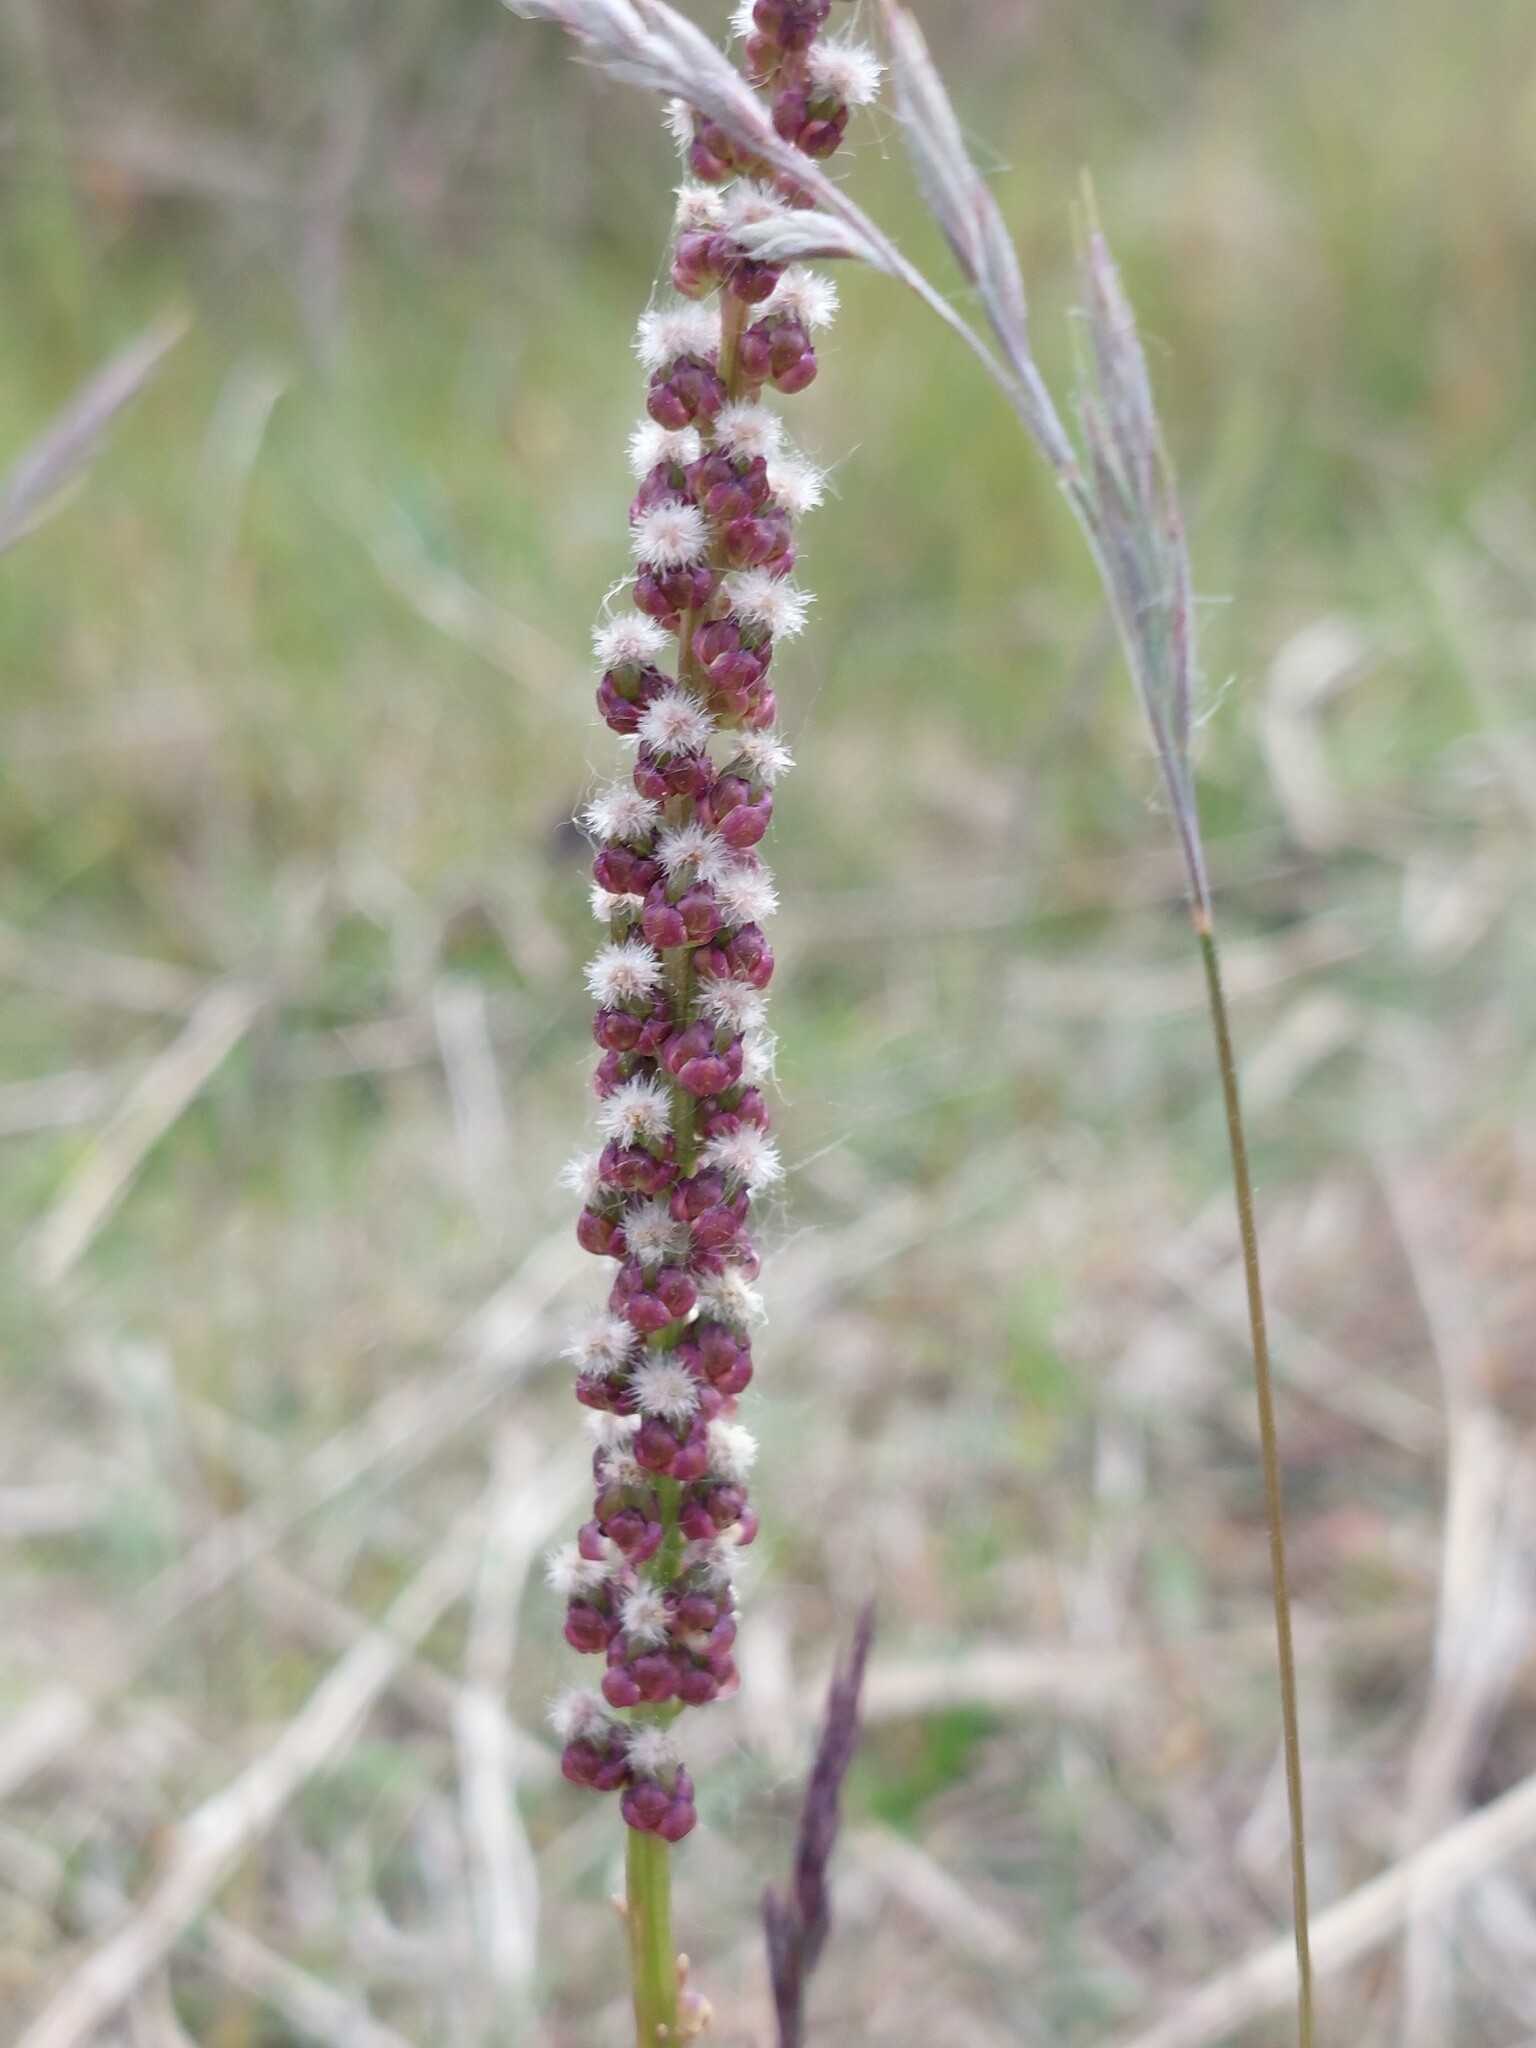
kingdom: Plantae
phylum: Tracheophyta
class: Liliopsida
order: Alismatales
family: Juncaginaceae
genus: Triglochin
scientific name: Triglochin maritima
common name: Sea arrowgrass
